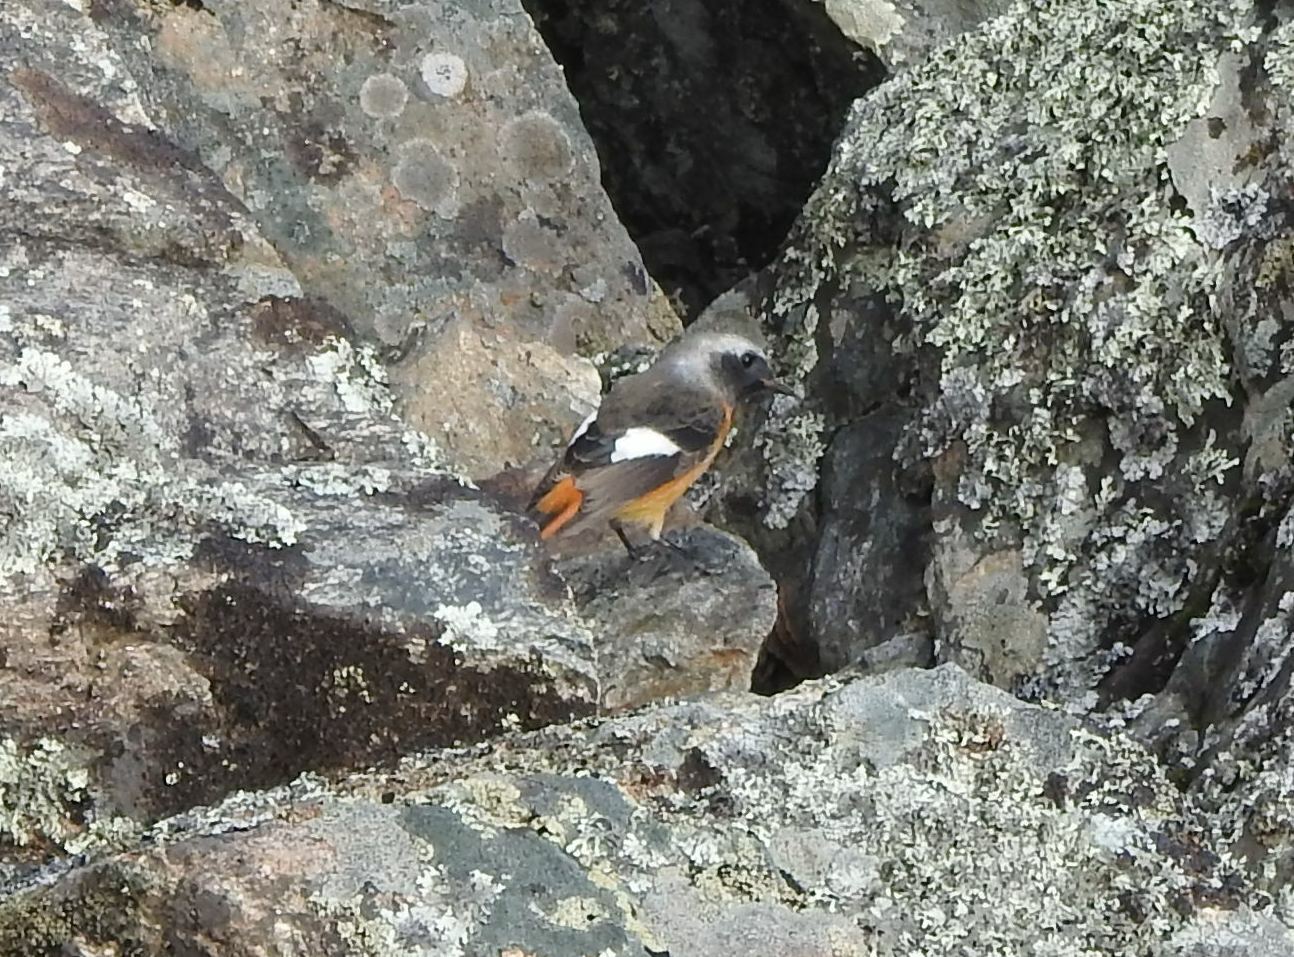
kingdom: Animalia
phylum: Chordata
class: Aves
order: Passeriformes
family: Muscicapidae
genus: Phoenicurus
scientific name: Phoenicurus auroreus
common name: Daurian redstart
